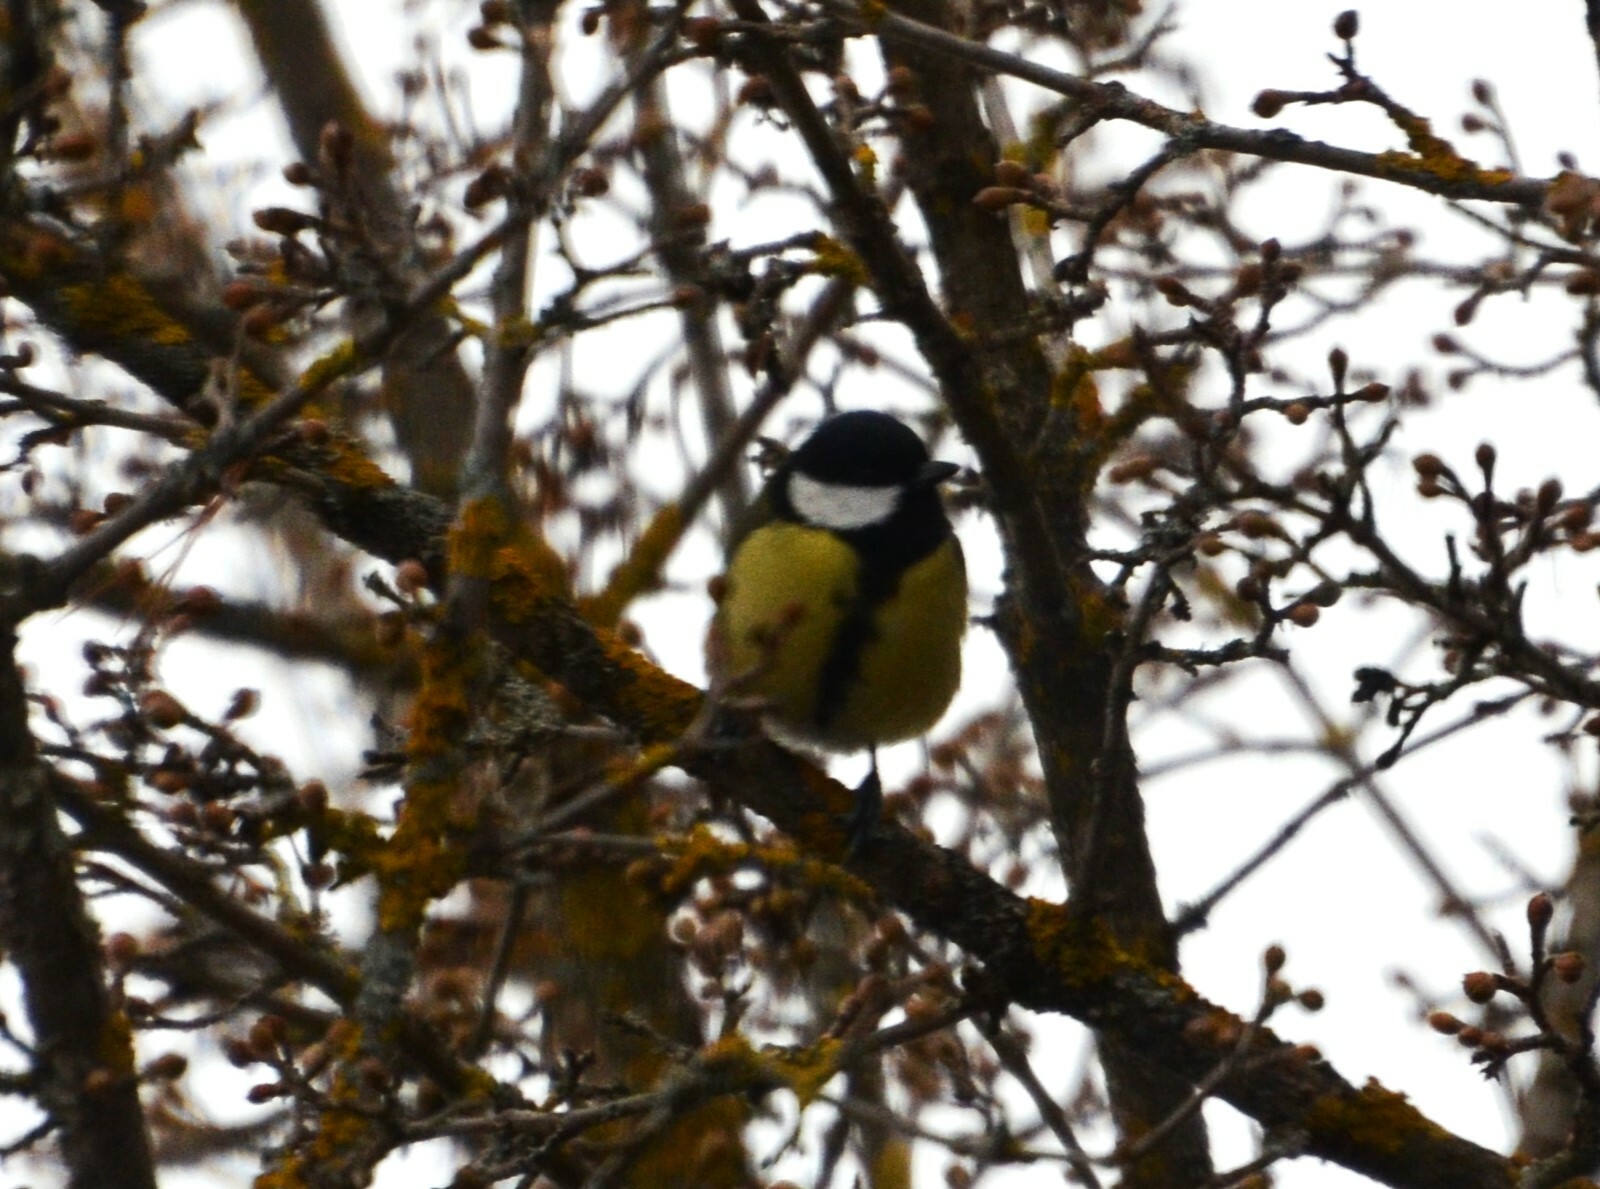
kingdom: Animalia
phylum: Chordata
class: Aves
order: Passeriformes
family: Paridae
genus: Parus
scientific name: Parus major
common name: Great tit
